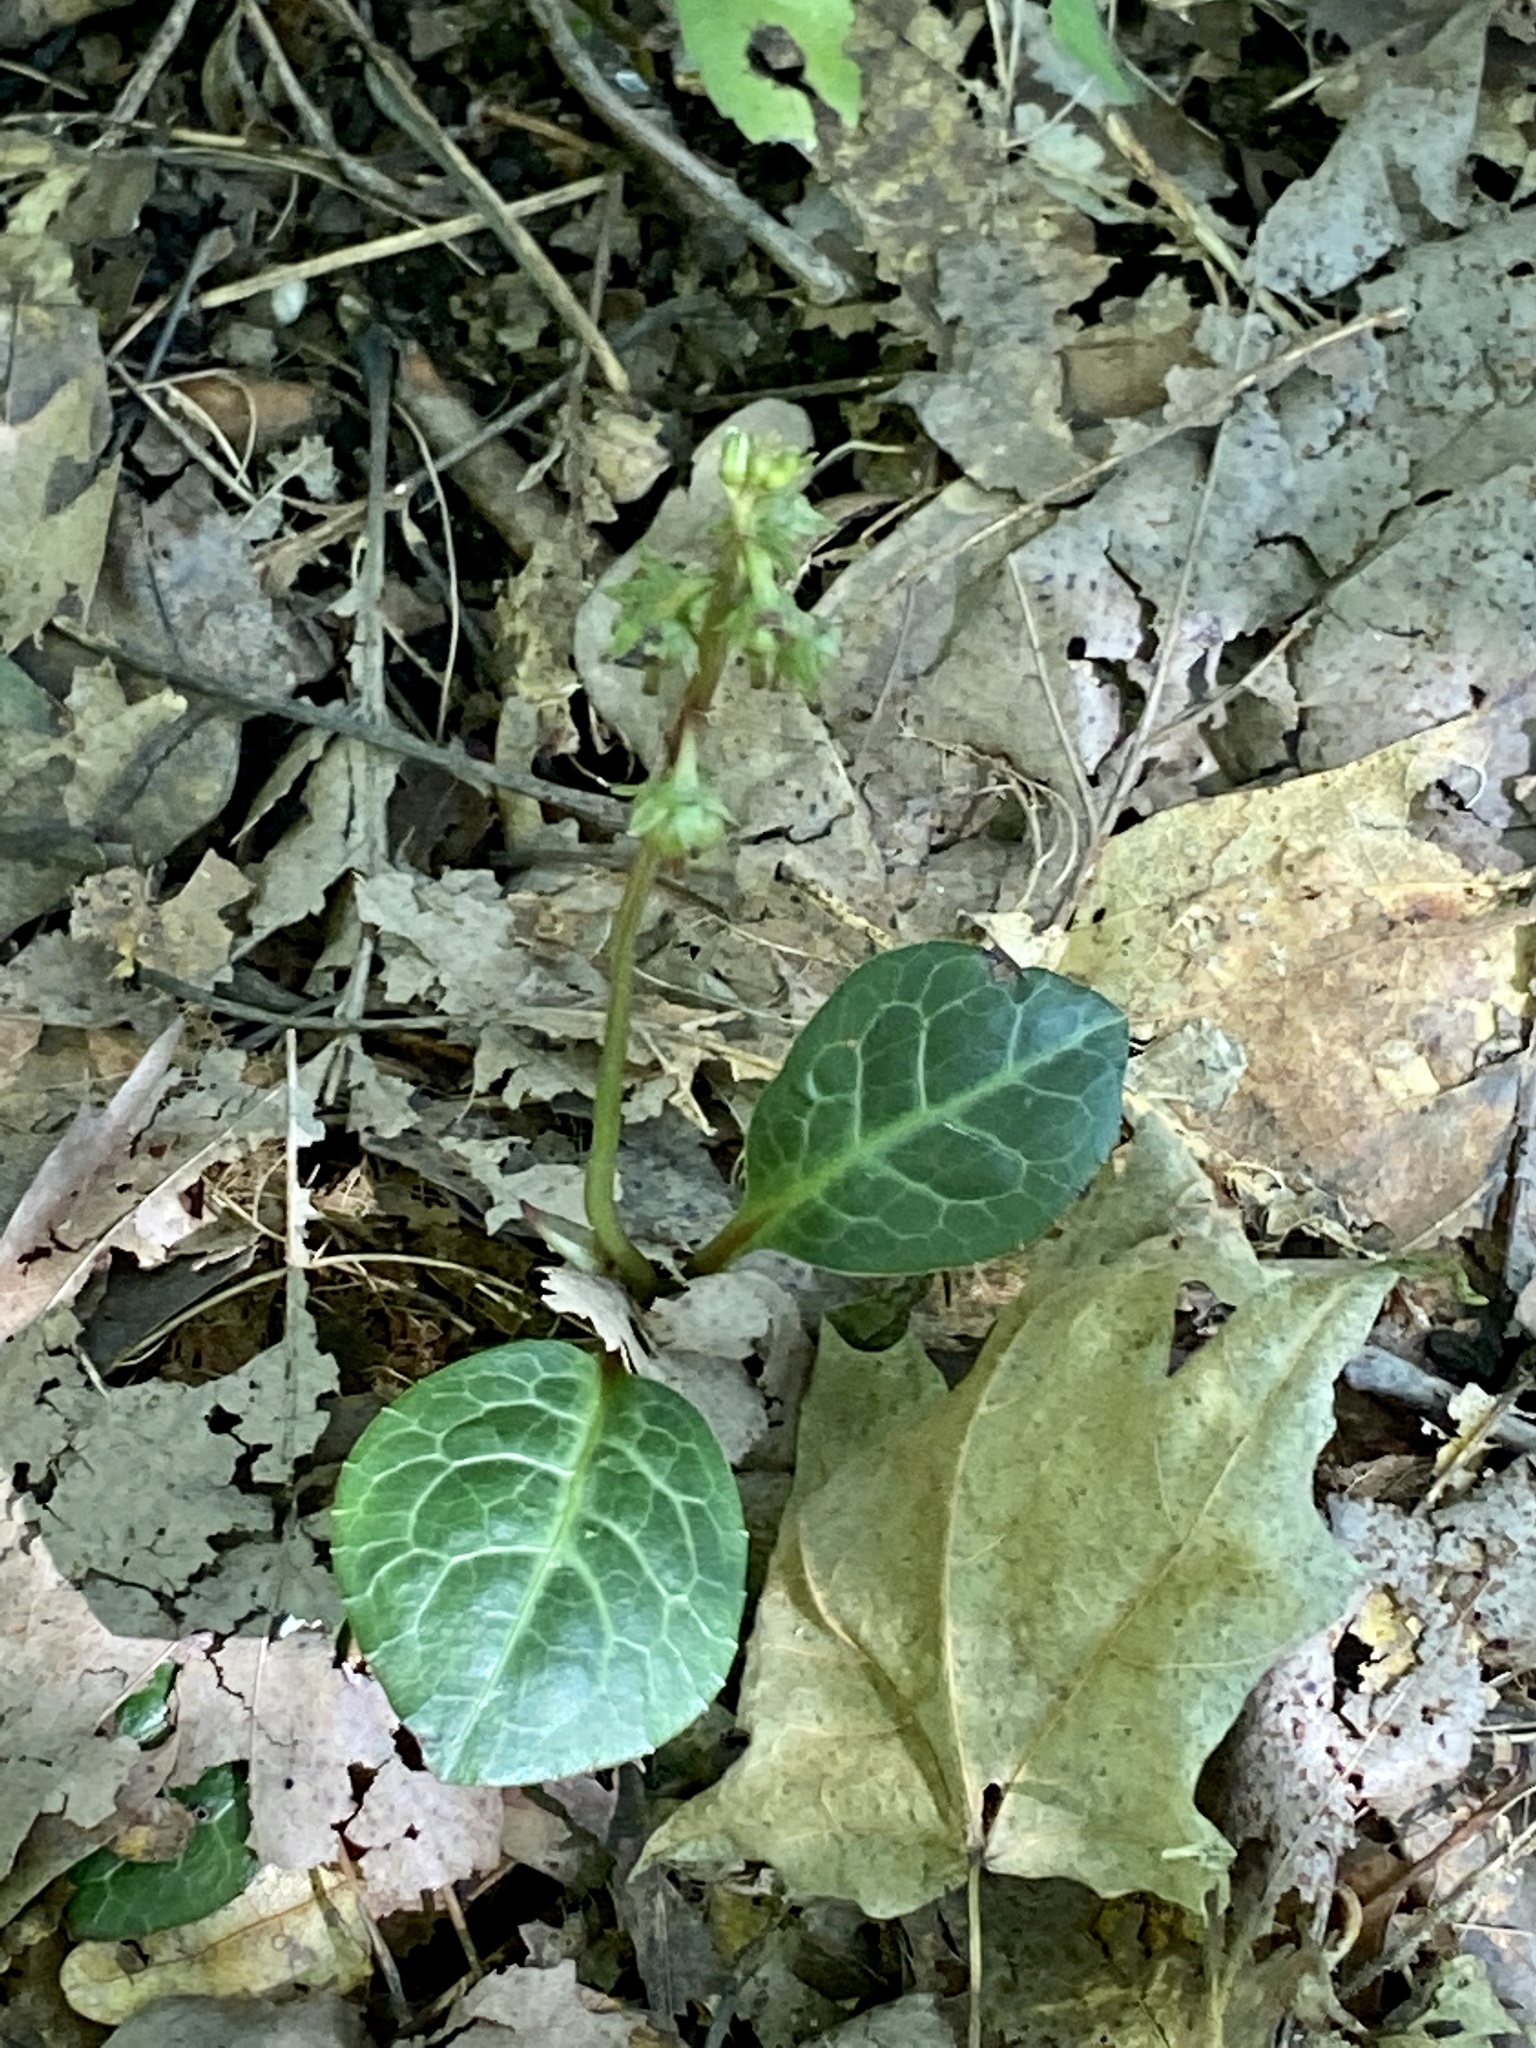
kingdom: Plantae
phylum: Tracheophyta
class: Magnoliopsida
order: Ericales
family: Ericaceae
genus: Pyrola
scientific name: Pyrola americana
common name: American wintergreen
